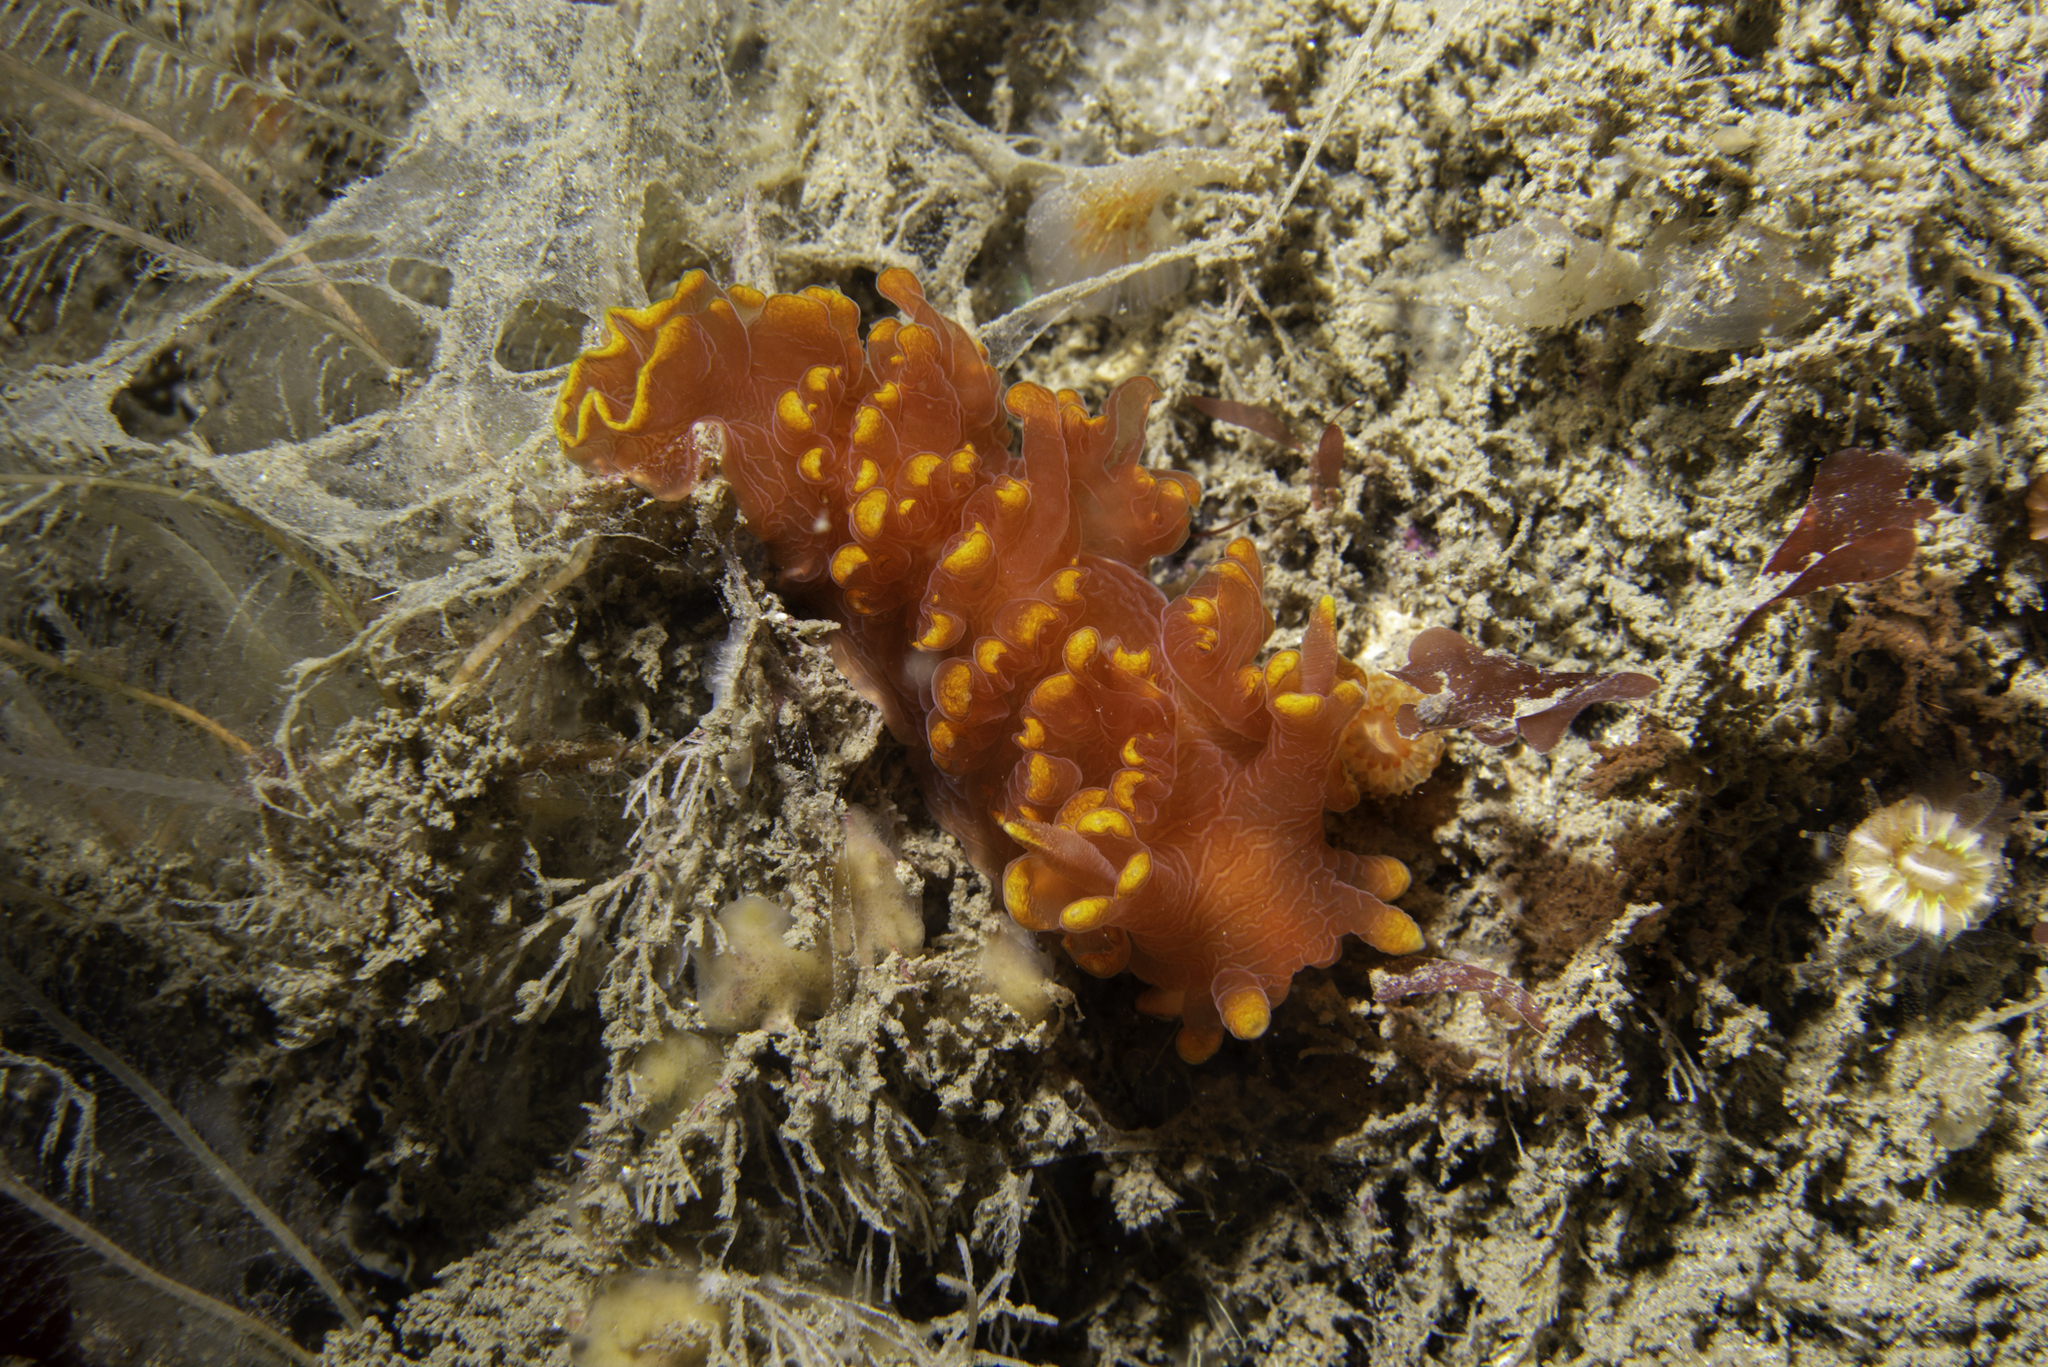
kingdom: Animalia
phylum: Mollusca
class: Gastropoda
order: Nudibranchia
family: Lomanotidae
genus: Lomanotus
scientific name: Lomanotus genei
